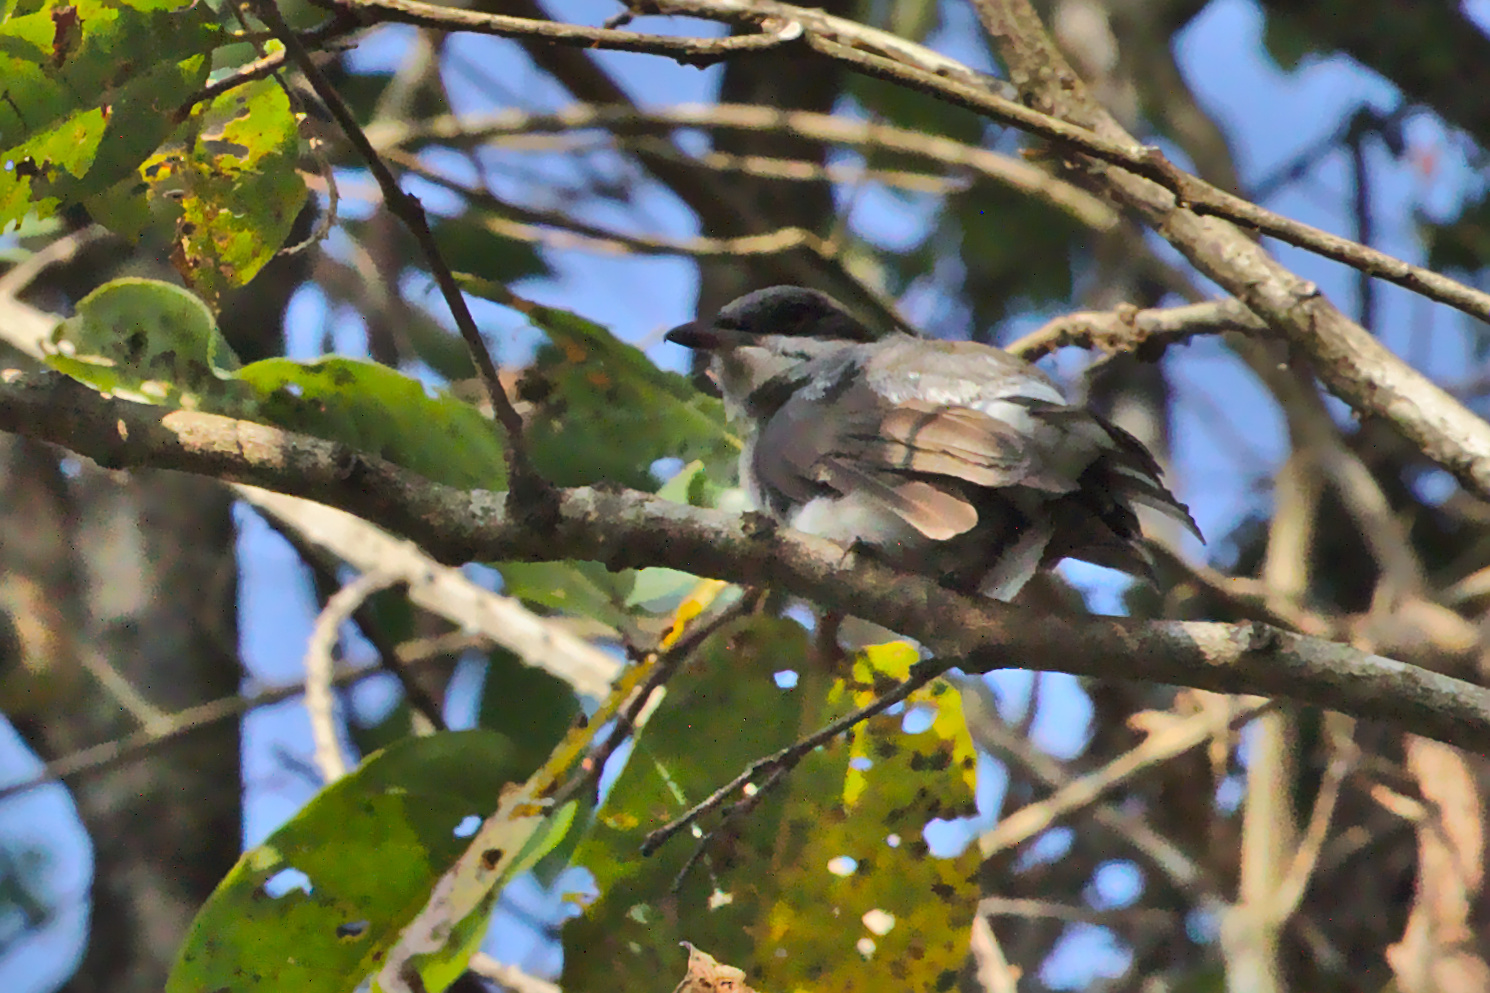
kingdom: Animalia
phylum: Chordata
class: Aves
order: Passeriformes
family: Tephrodornithidae
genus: Tephrodornis
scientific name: Tephrodornis pondicerianus
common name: Common woodshrike
